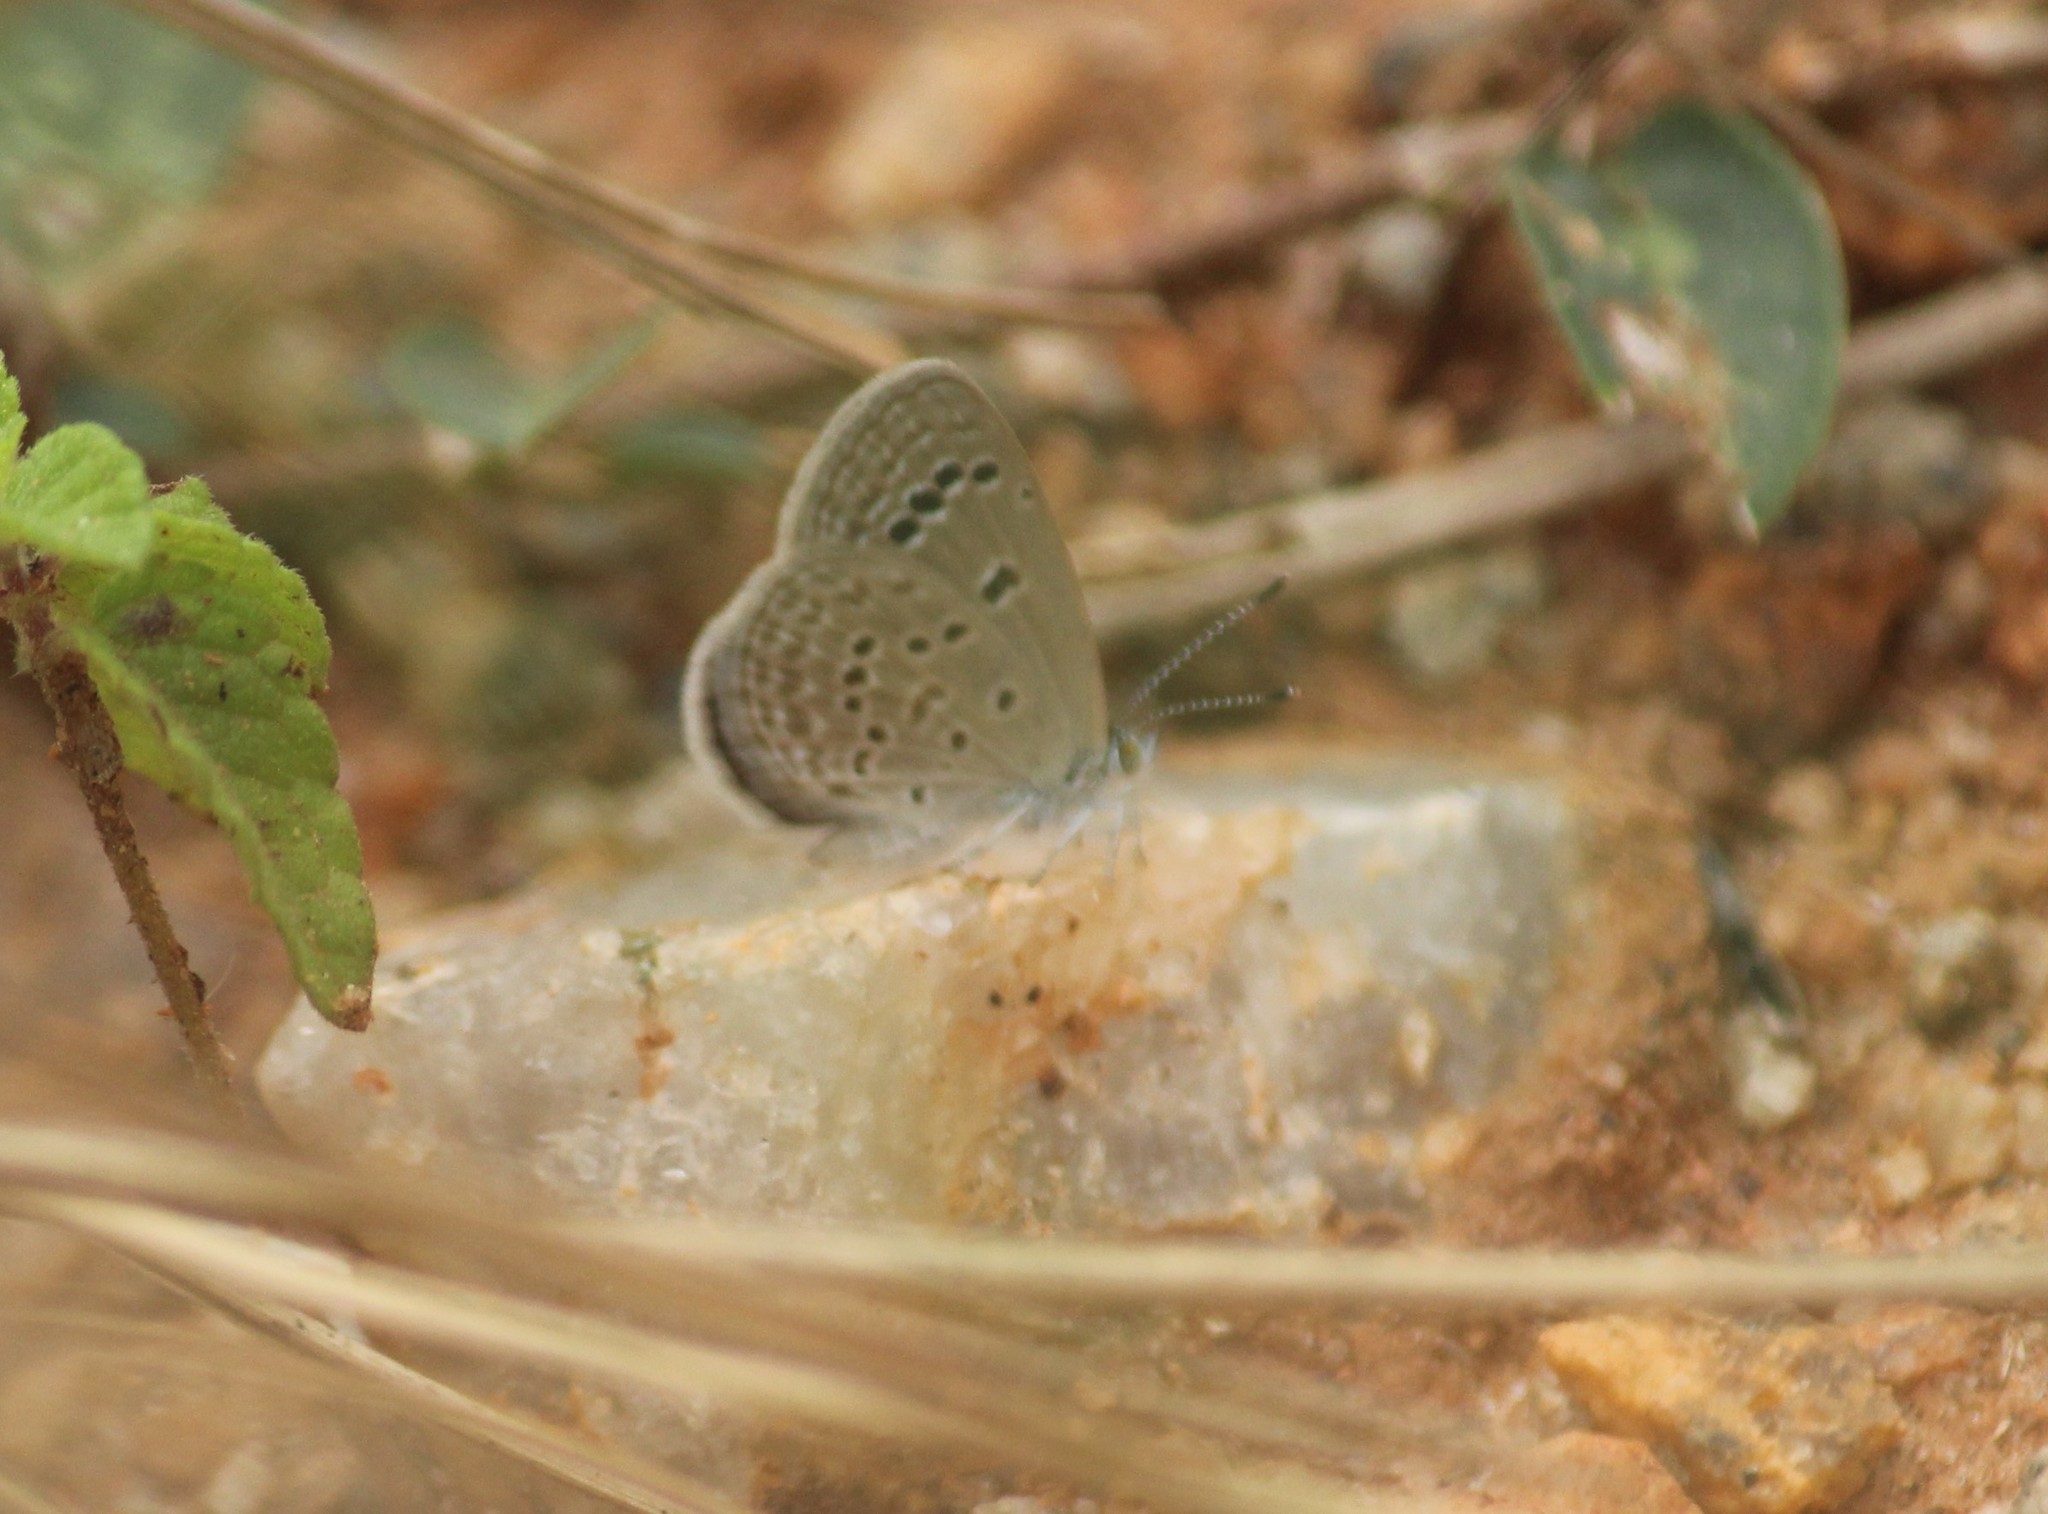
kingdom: Animalia
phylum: Arthropoda
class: Insecta
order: Lepidoptera
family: Lycaenidae
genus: Zizina
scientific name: Zizina otis
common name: Lesser grass blue
